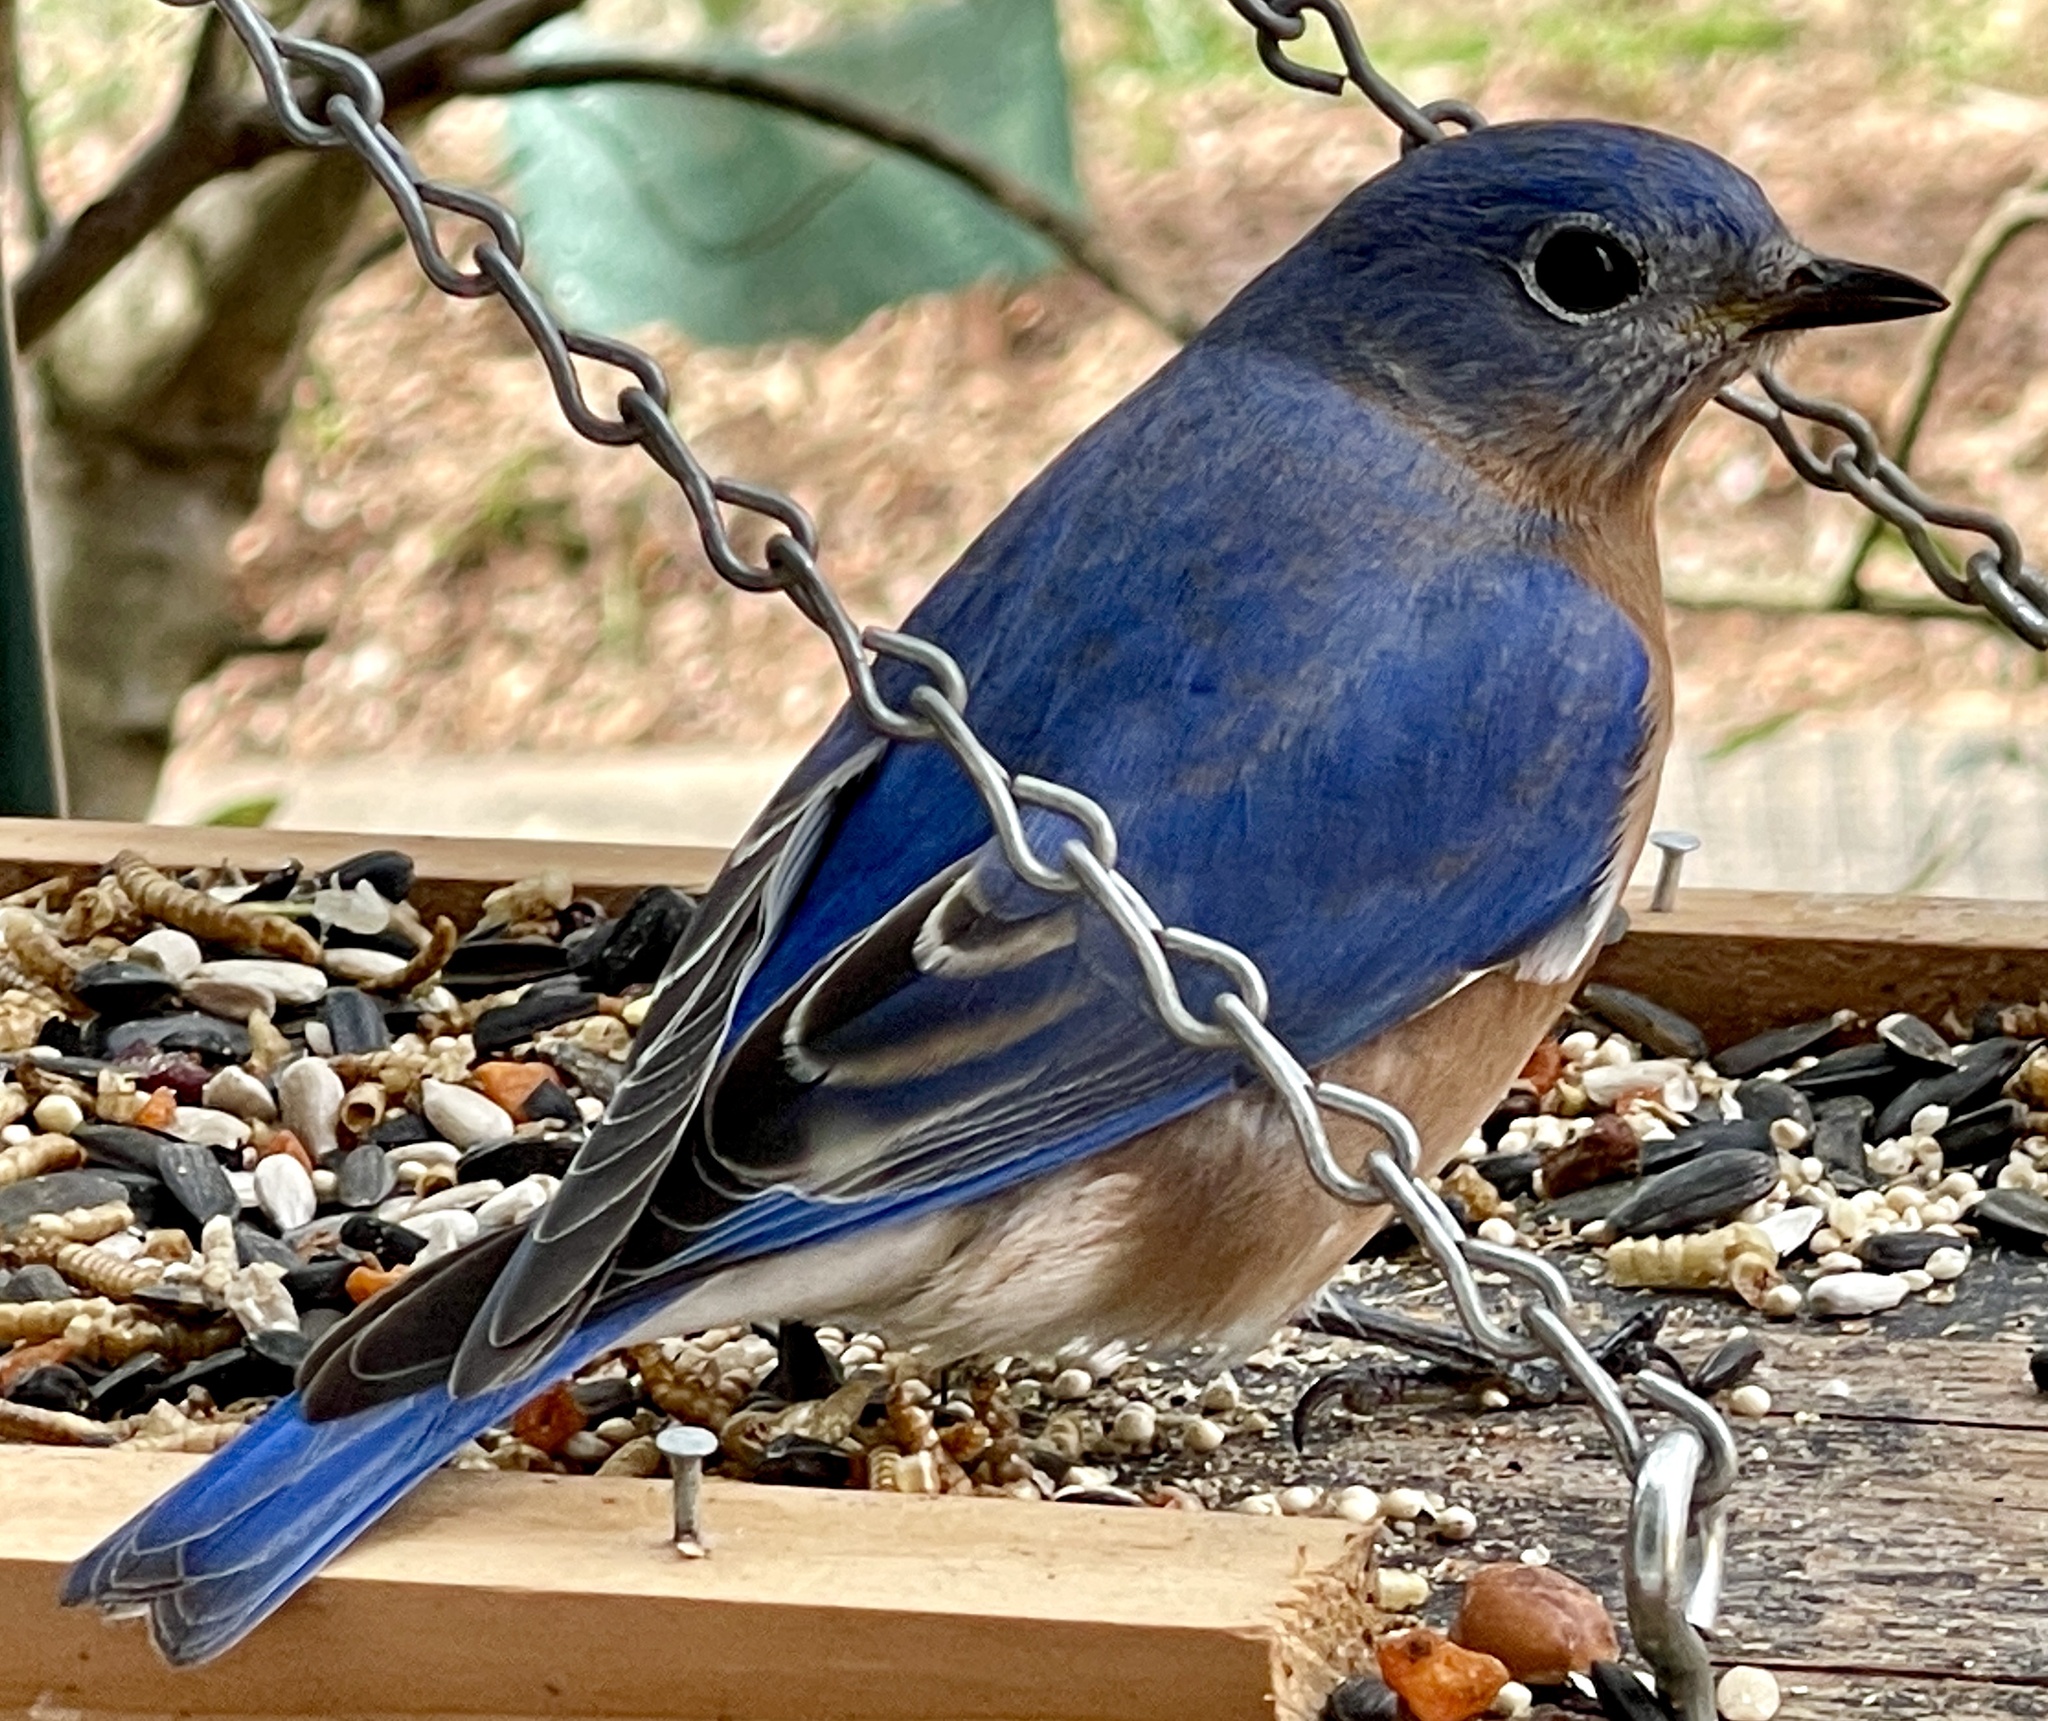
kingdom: Animalia
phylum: Chordata
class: Aves
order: Passeriformes
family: Turdidae
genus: Sialia
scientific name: Sialia sialis
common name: Eastern bluebird
